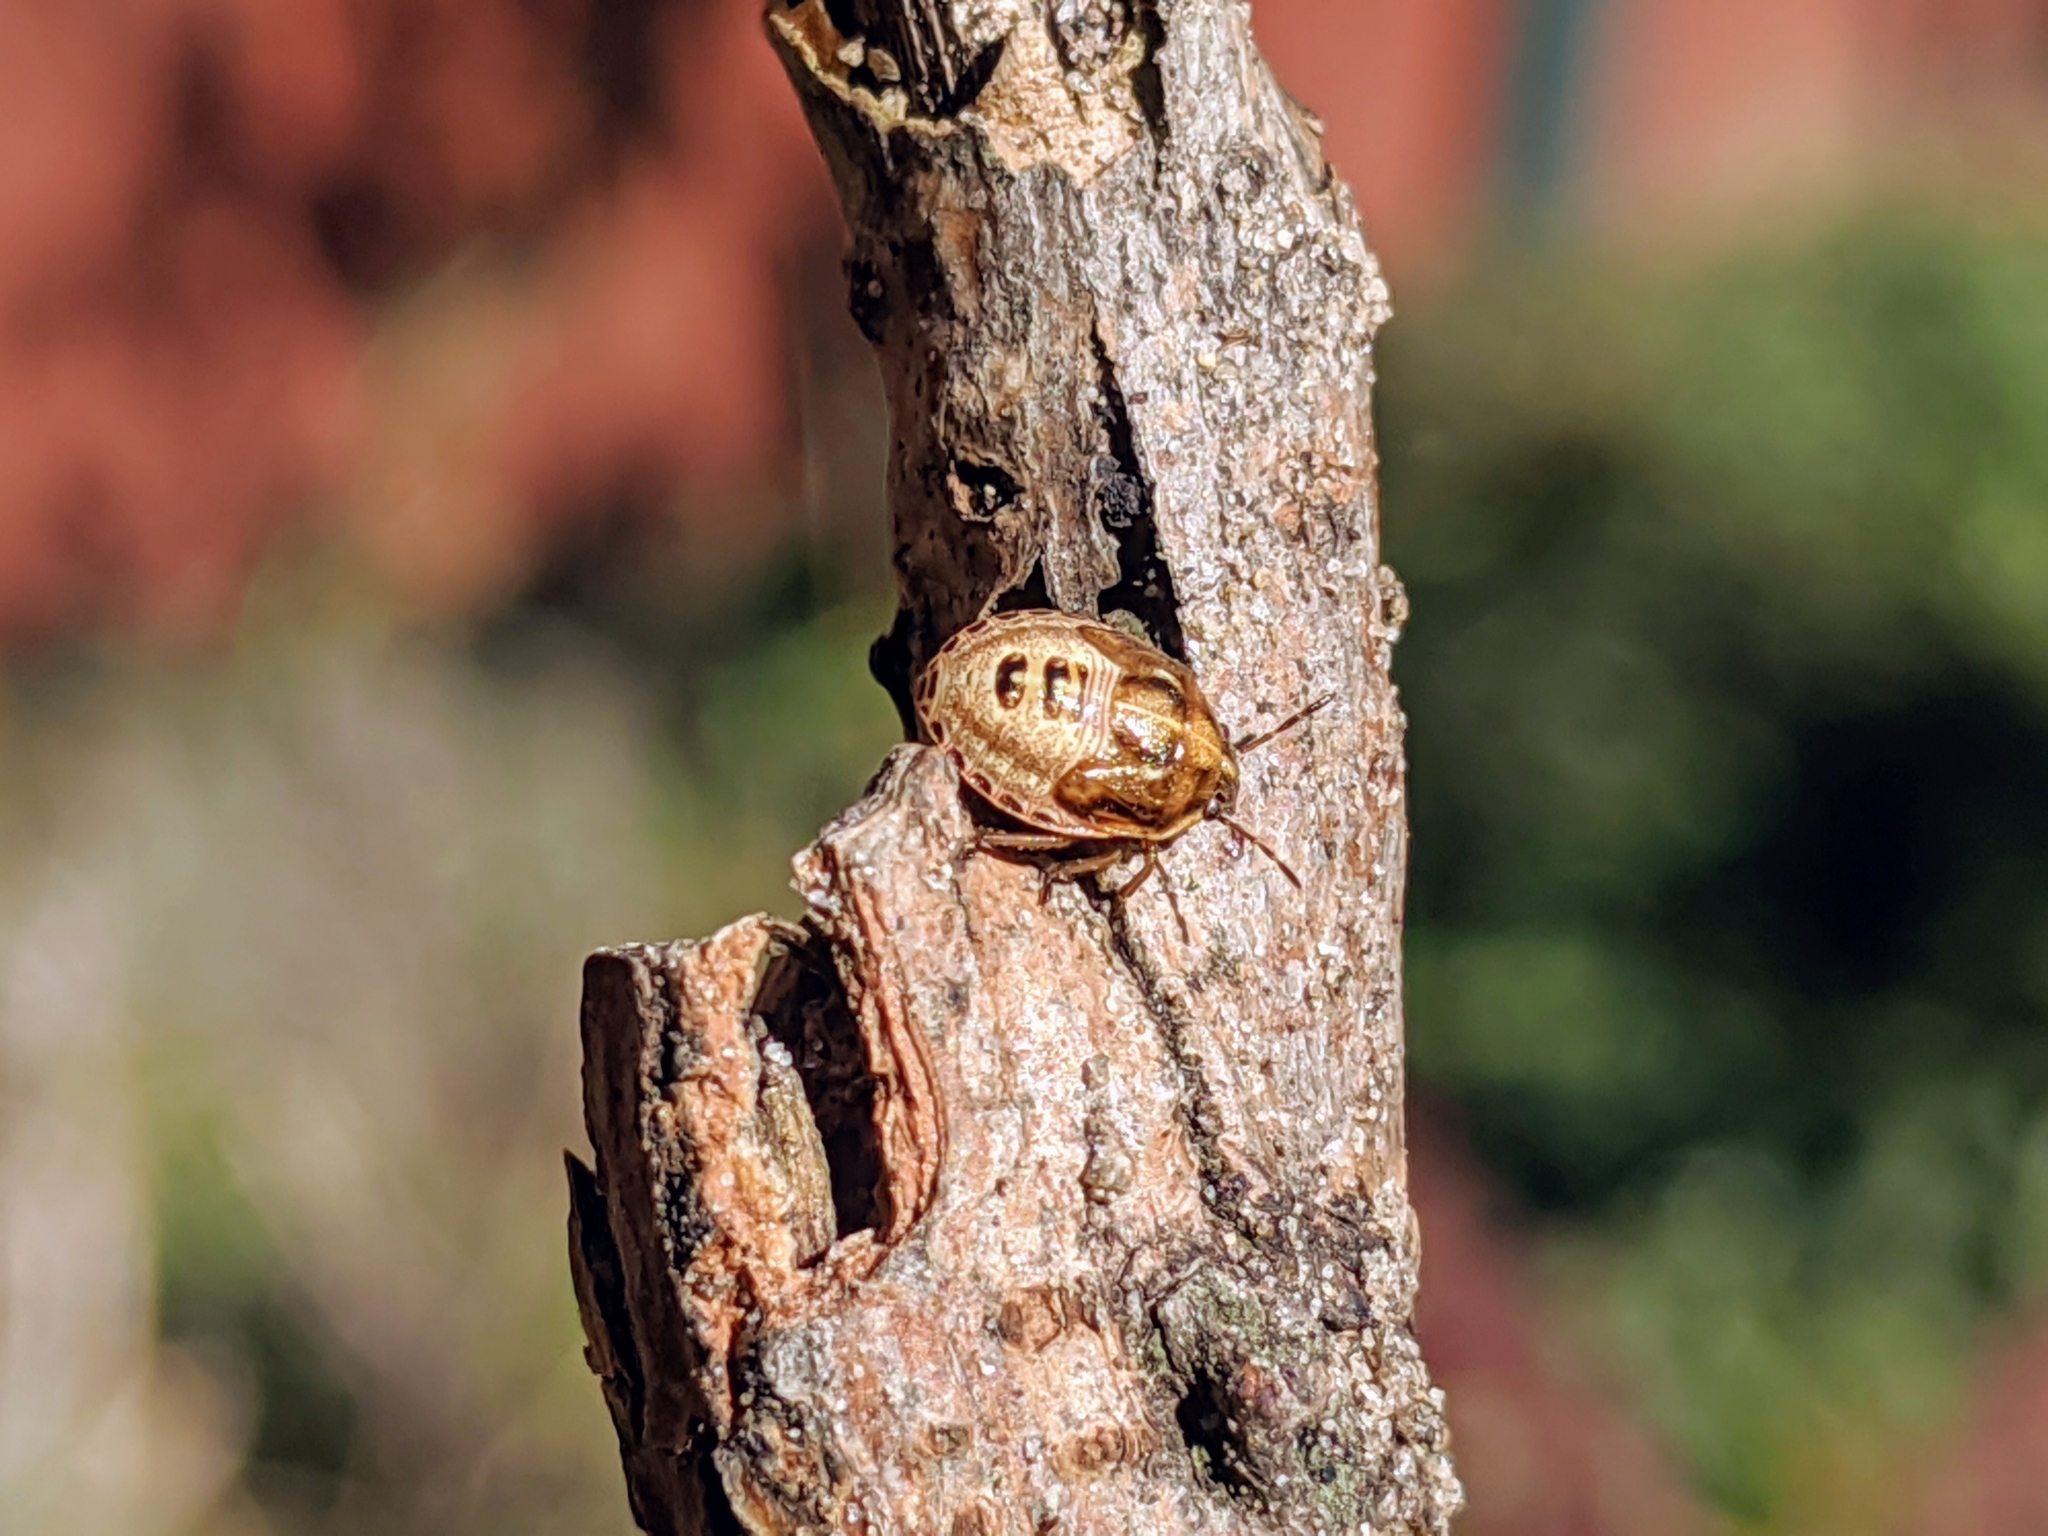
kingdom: Animalia
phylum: Arthropoda
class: Insecta
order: Hemiptera
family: Pentatomidae
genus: Eysarcoris
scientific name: Eysarcoris ventralis
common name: White-spotted stink bug
